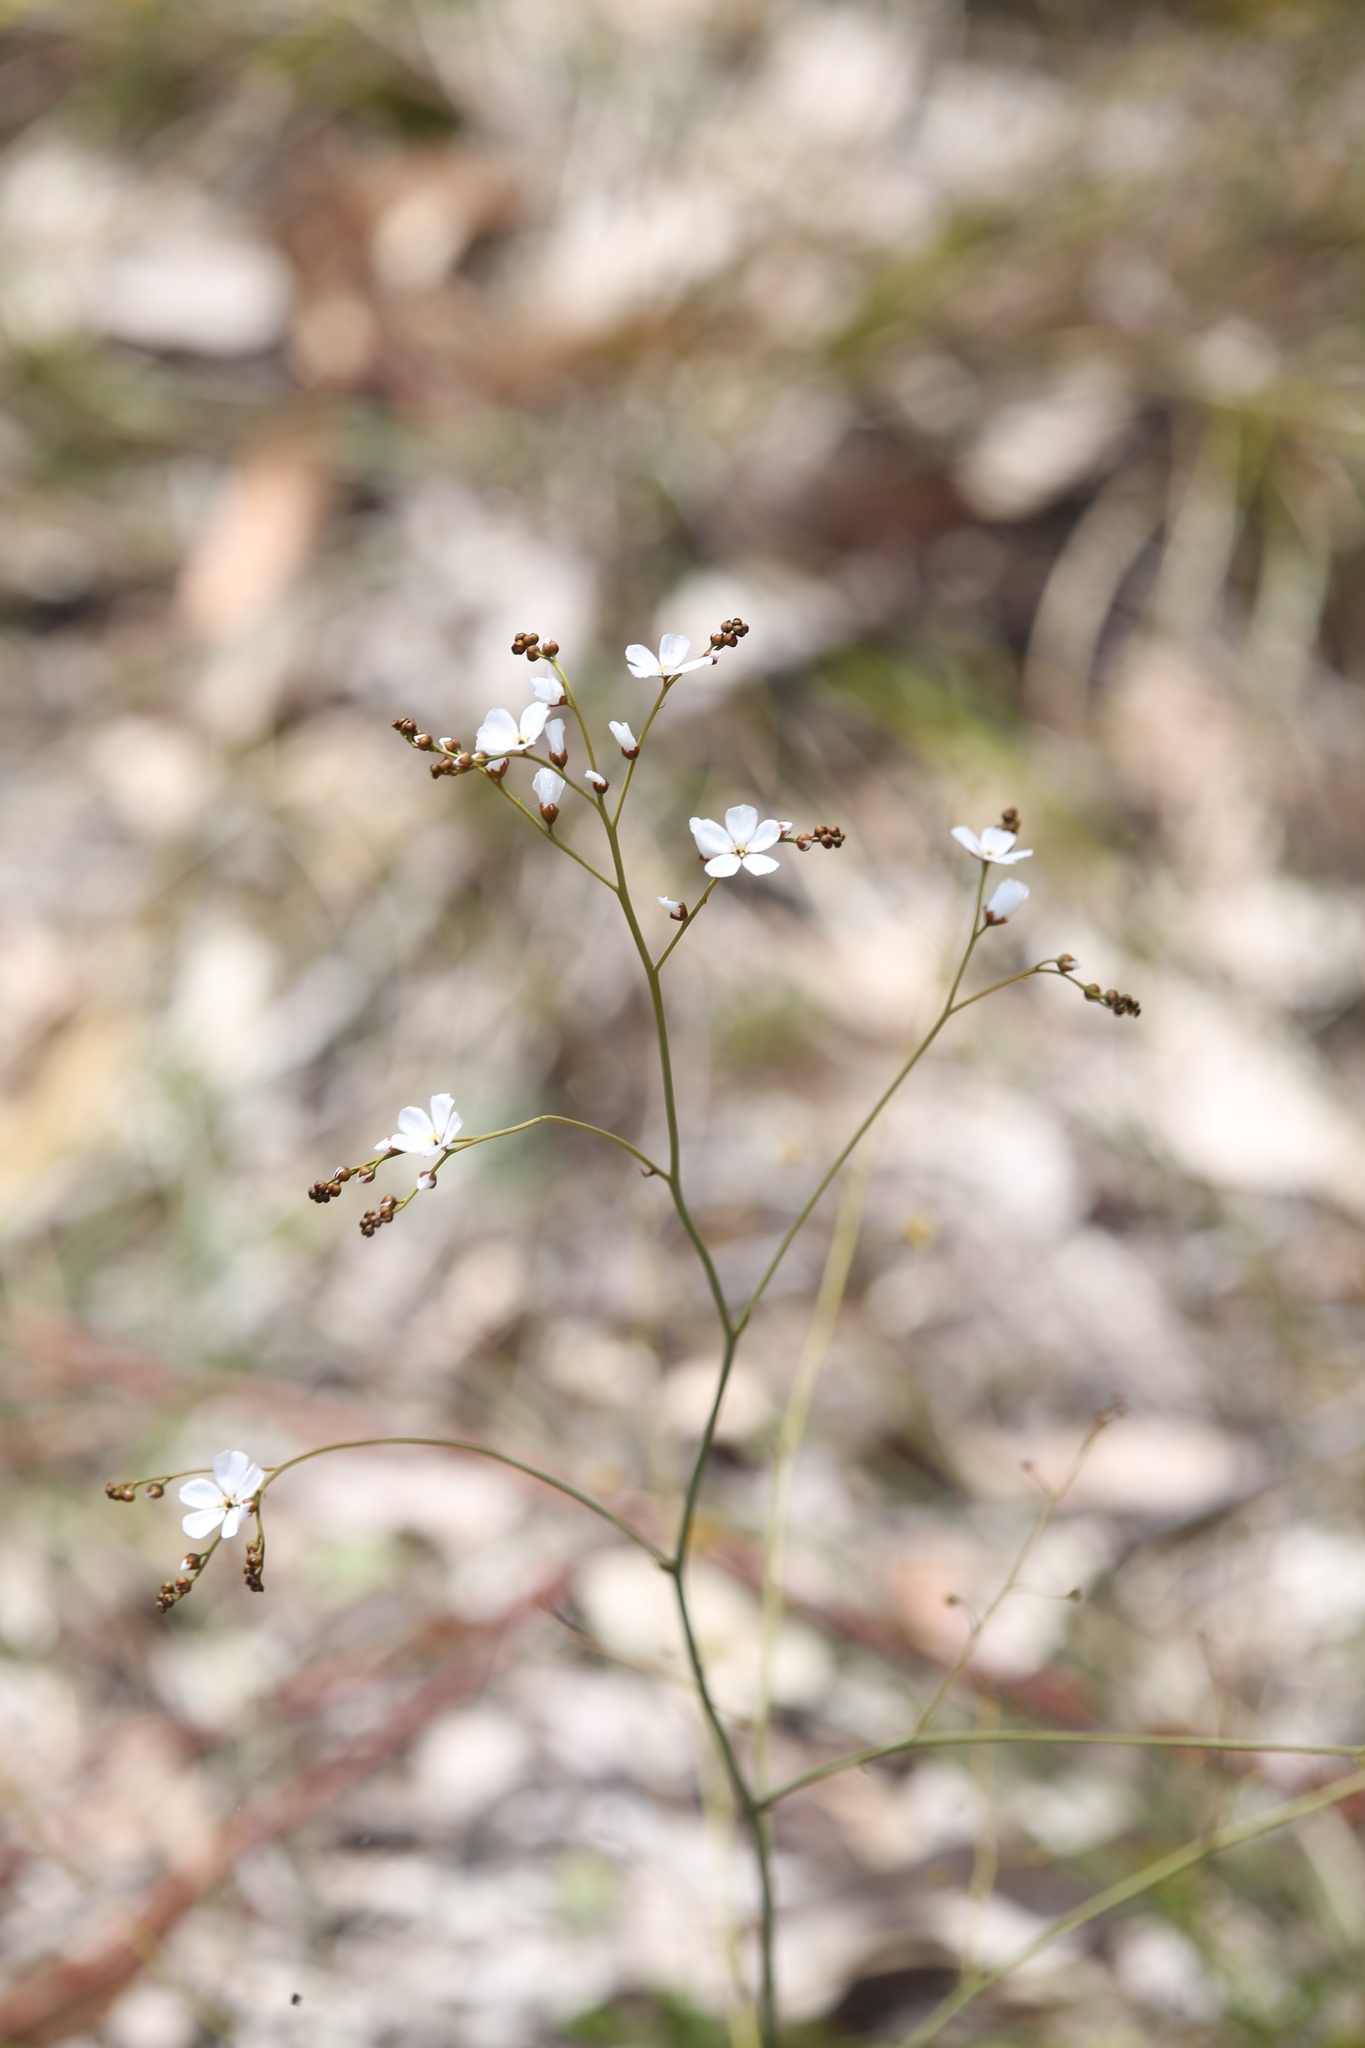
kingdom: Plantae
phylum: Tracheophyta
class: Magnoliopsida
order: Caryophyllales
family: Droseraceae
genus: Drosera
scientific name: Drosera gigantea
